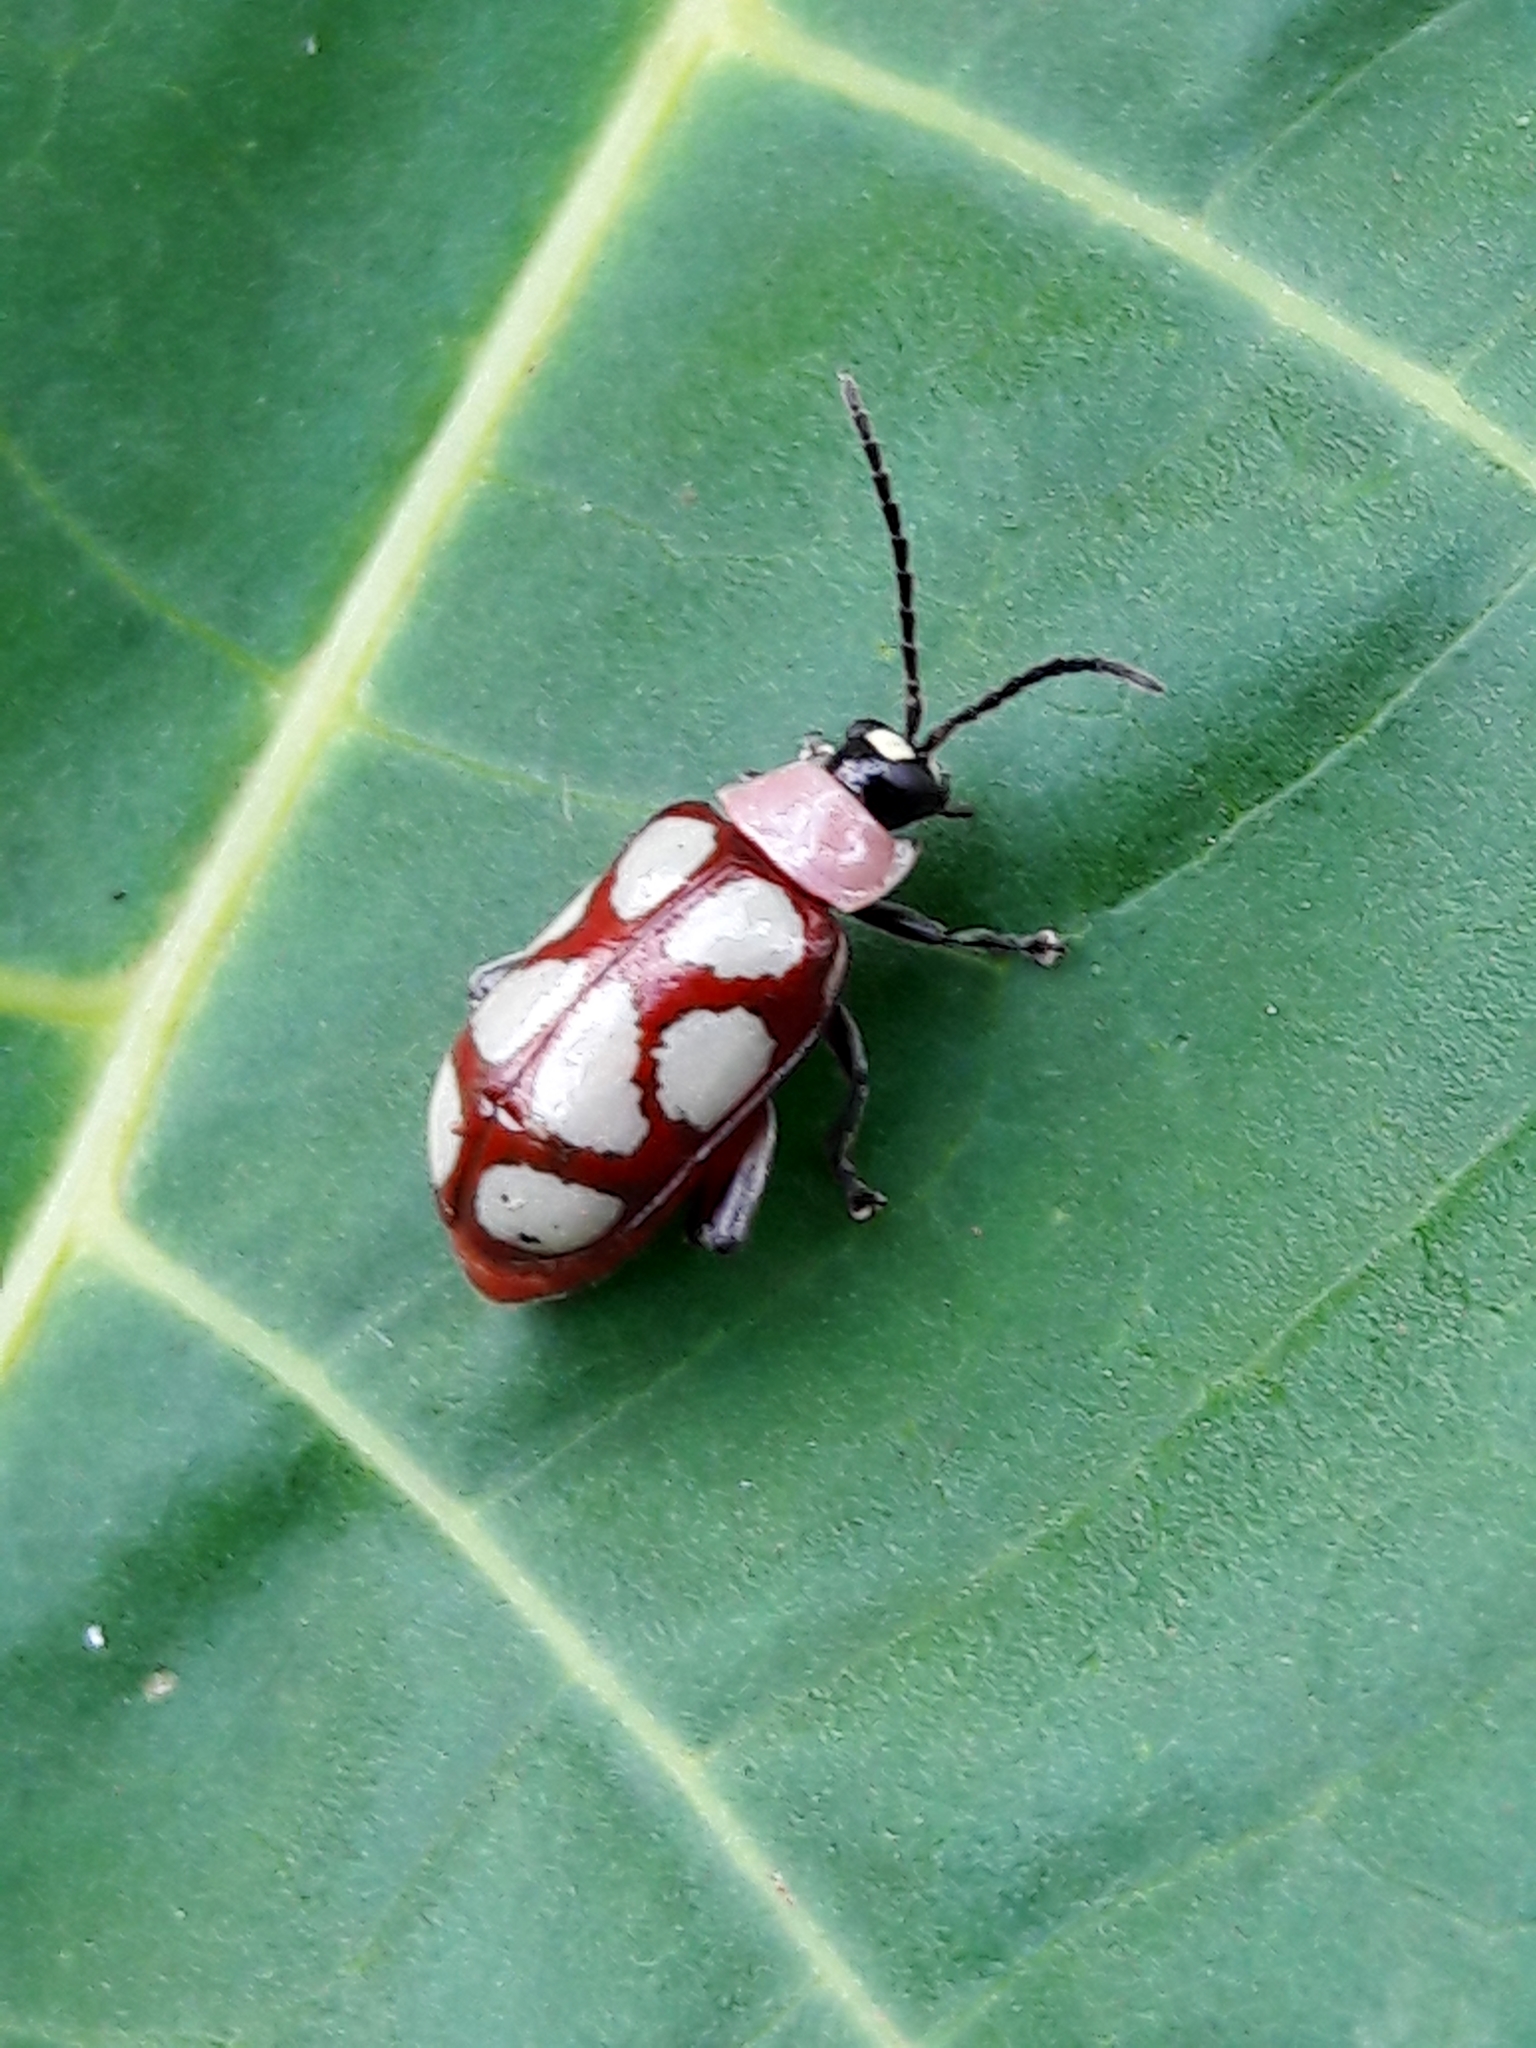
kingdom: Animalia
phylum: Arthropoda
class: Insecta
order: Coleoptera
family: Chrysomelidae
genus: Omophoita
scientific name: Omophoita
